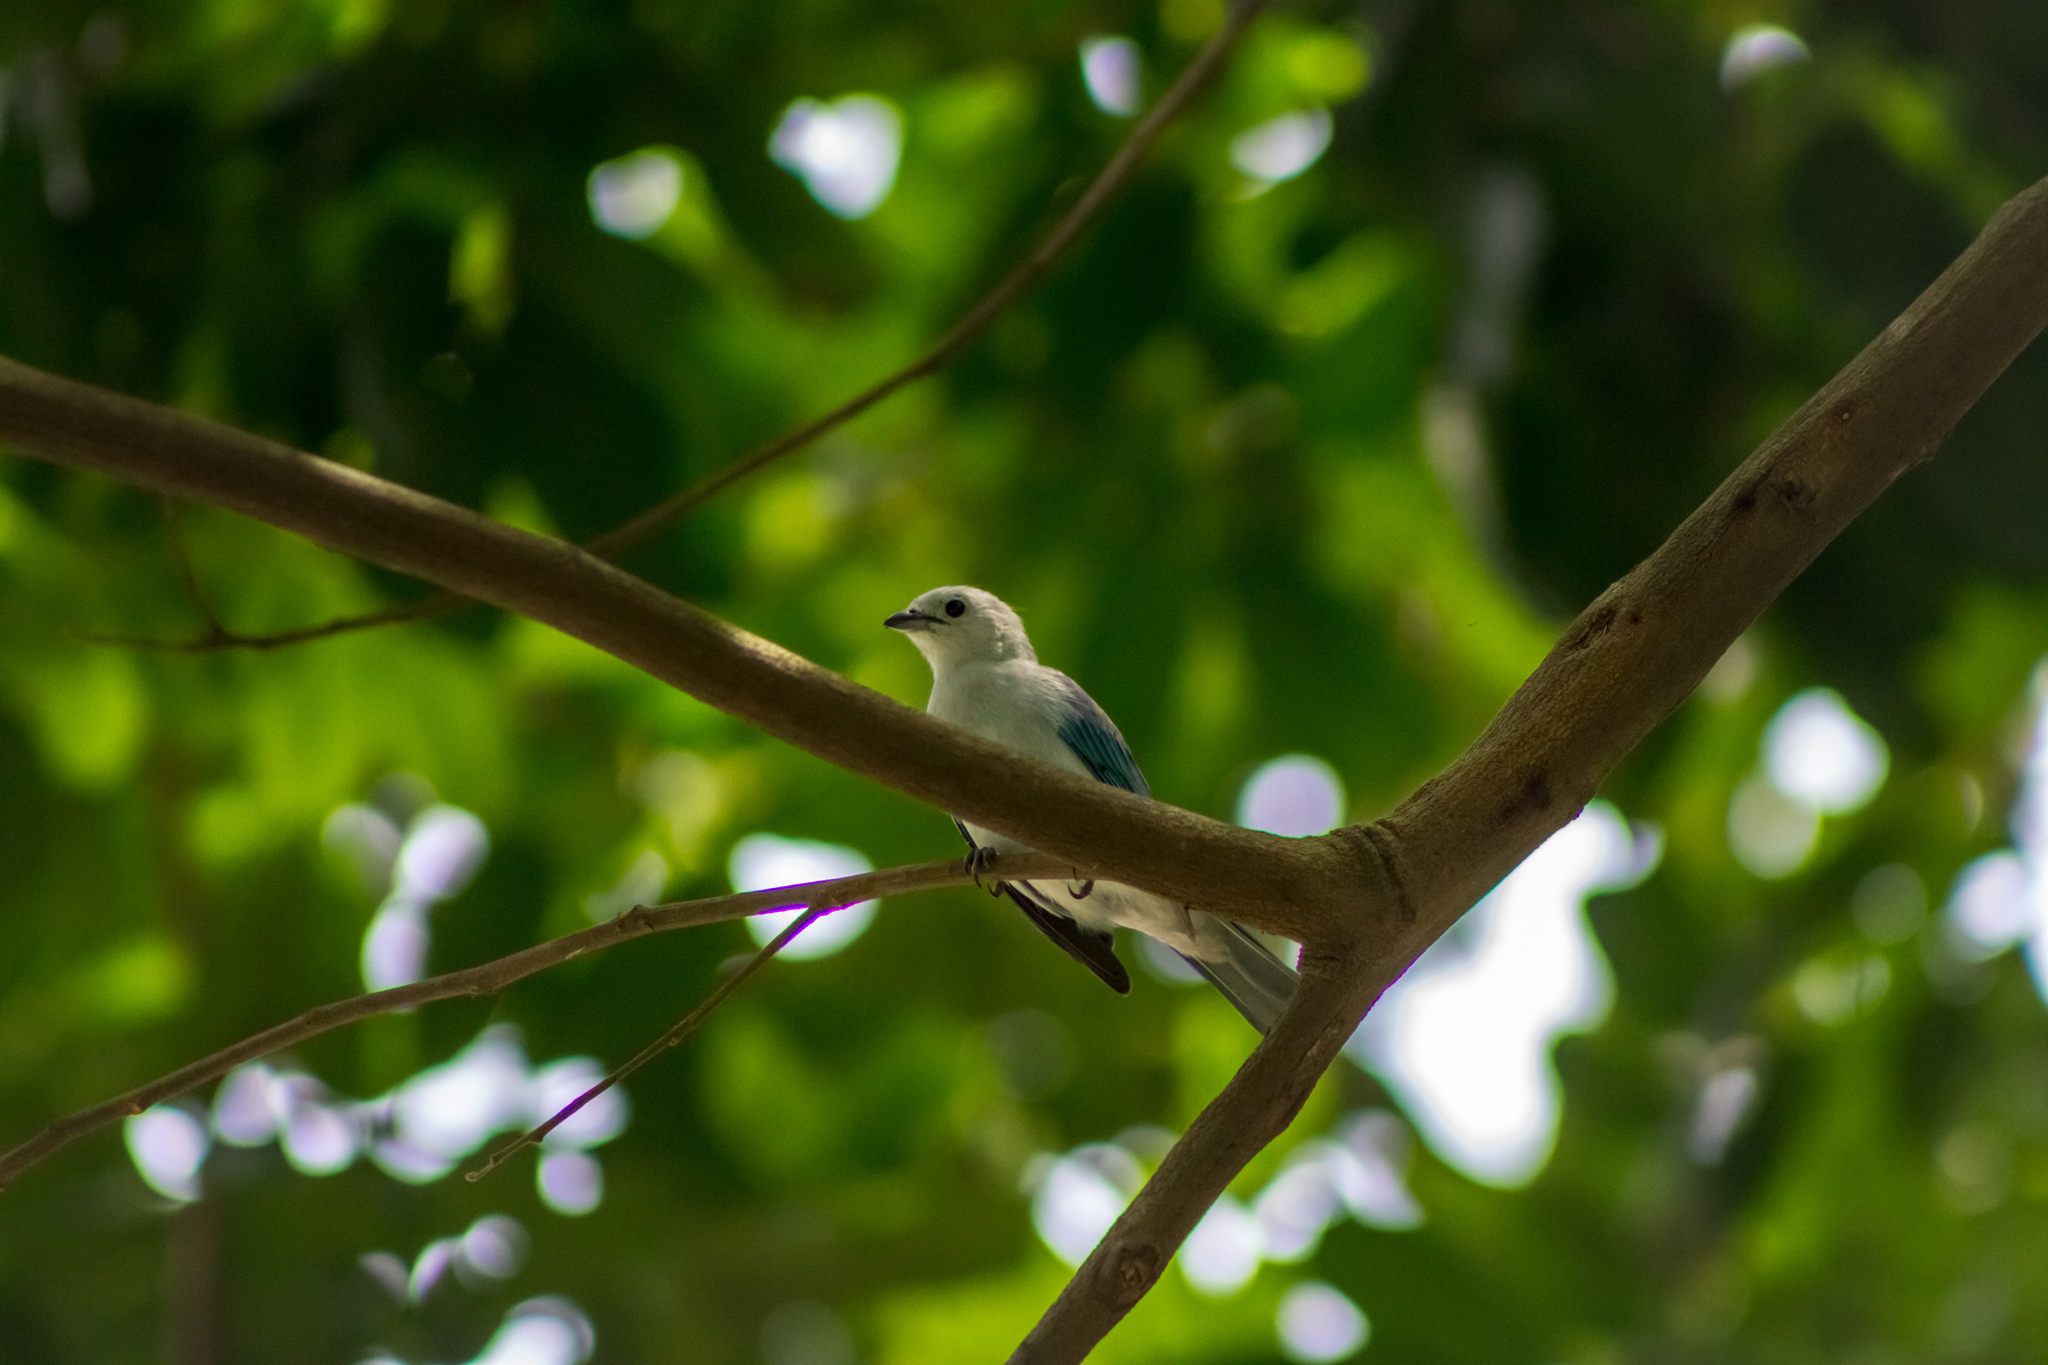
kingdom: Animalia
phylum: Chordata
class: Aves
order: Passeriformes
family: Thraupidae
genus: Thraupis
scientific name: Thraupis episcopus
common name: Blue-grey tanager
